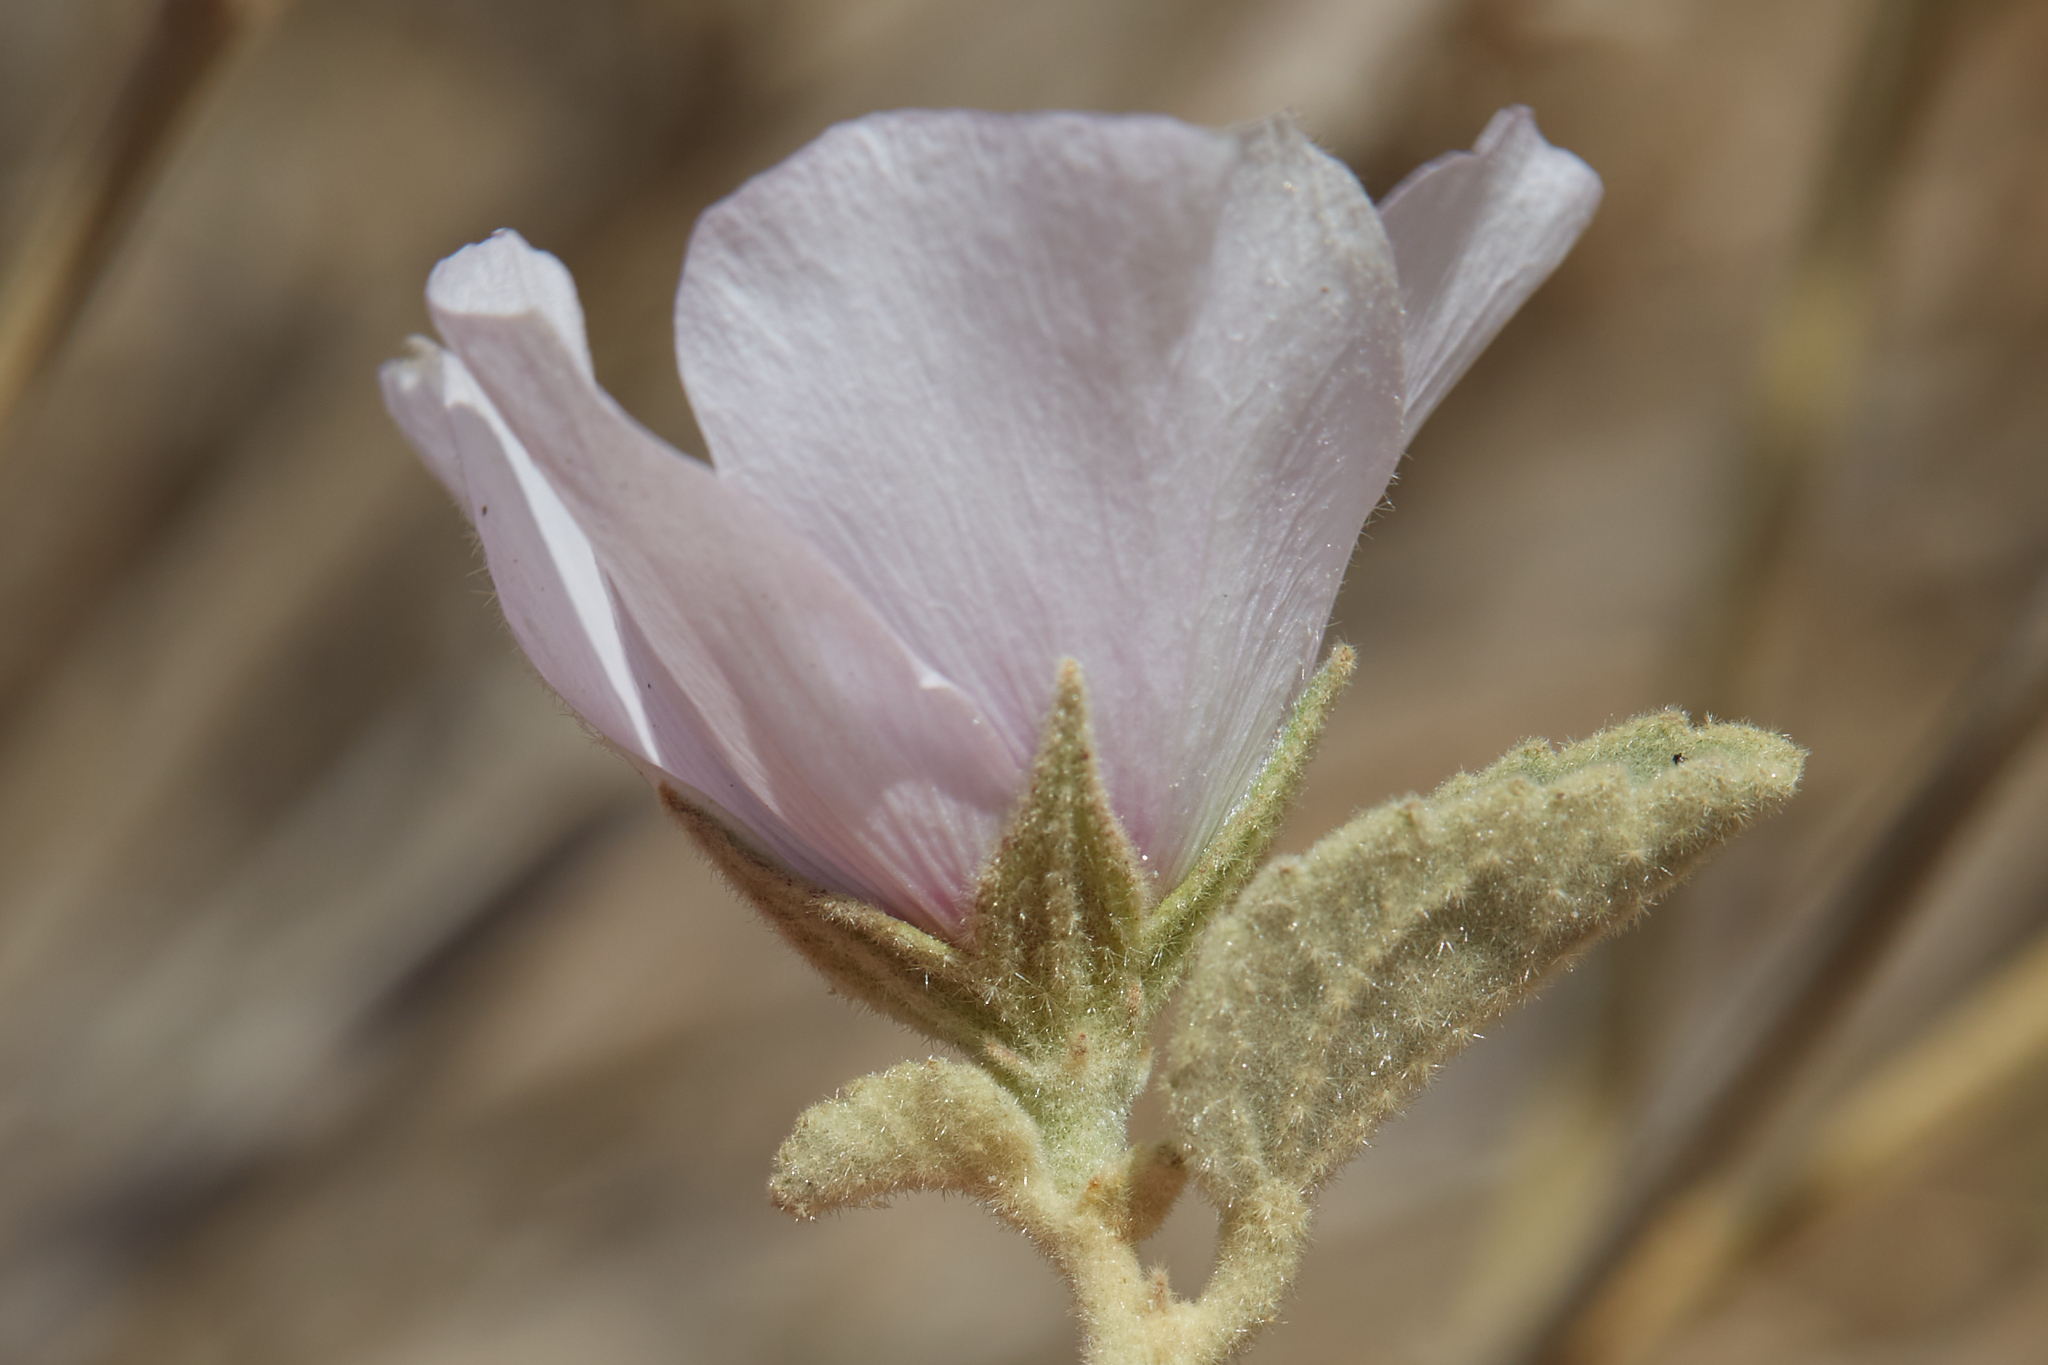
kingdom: Plantae
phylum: Tracheophyta
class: Magnoliopsida
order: Malvales
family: Malvaceae
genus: Hibiscus
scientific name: Hibiscus denudatus
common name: Paleface
